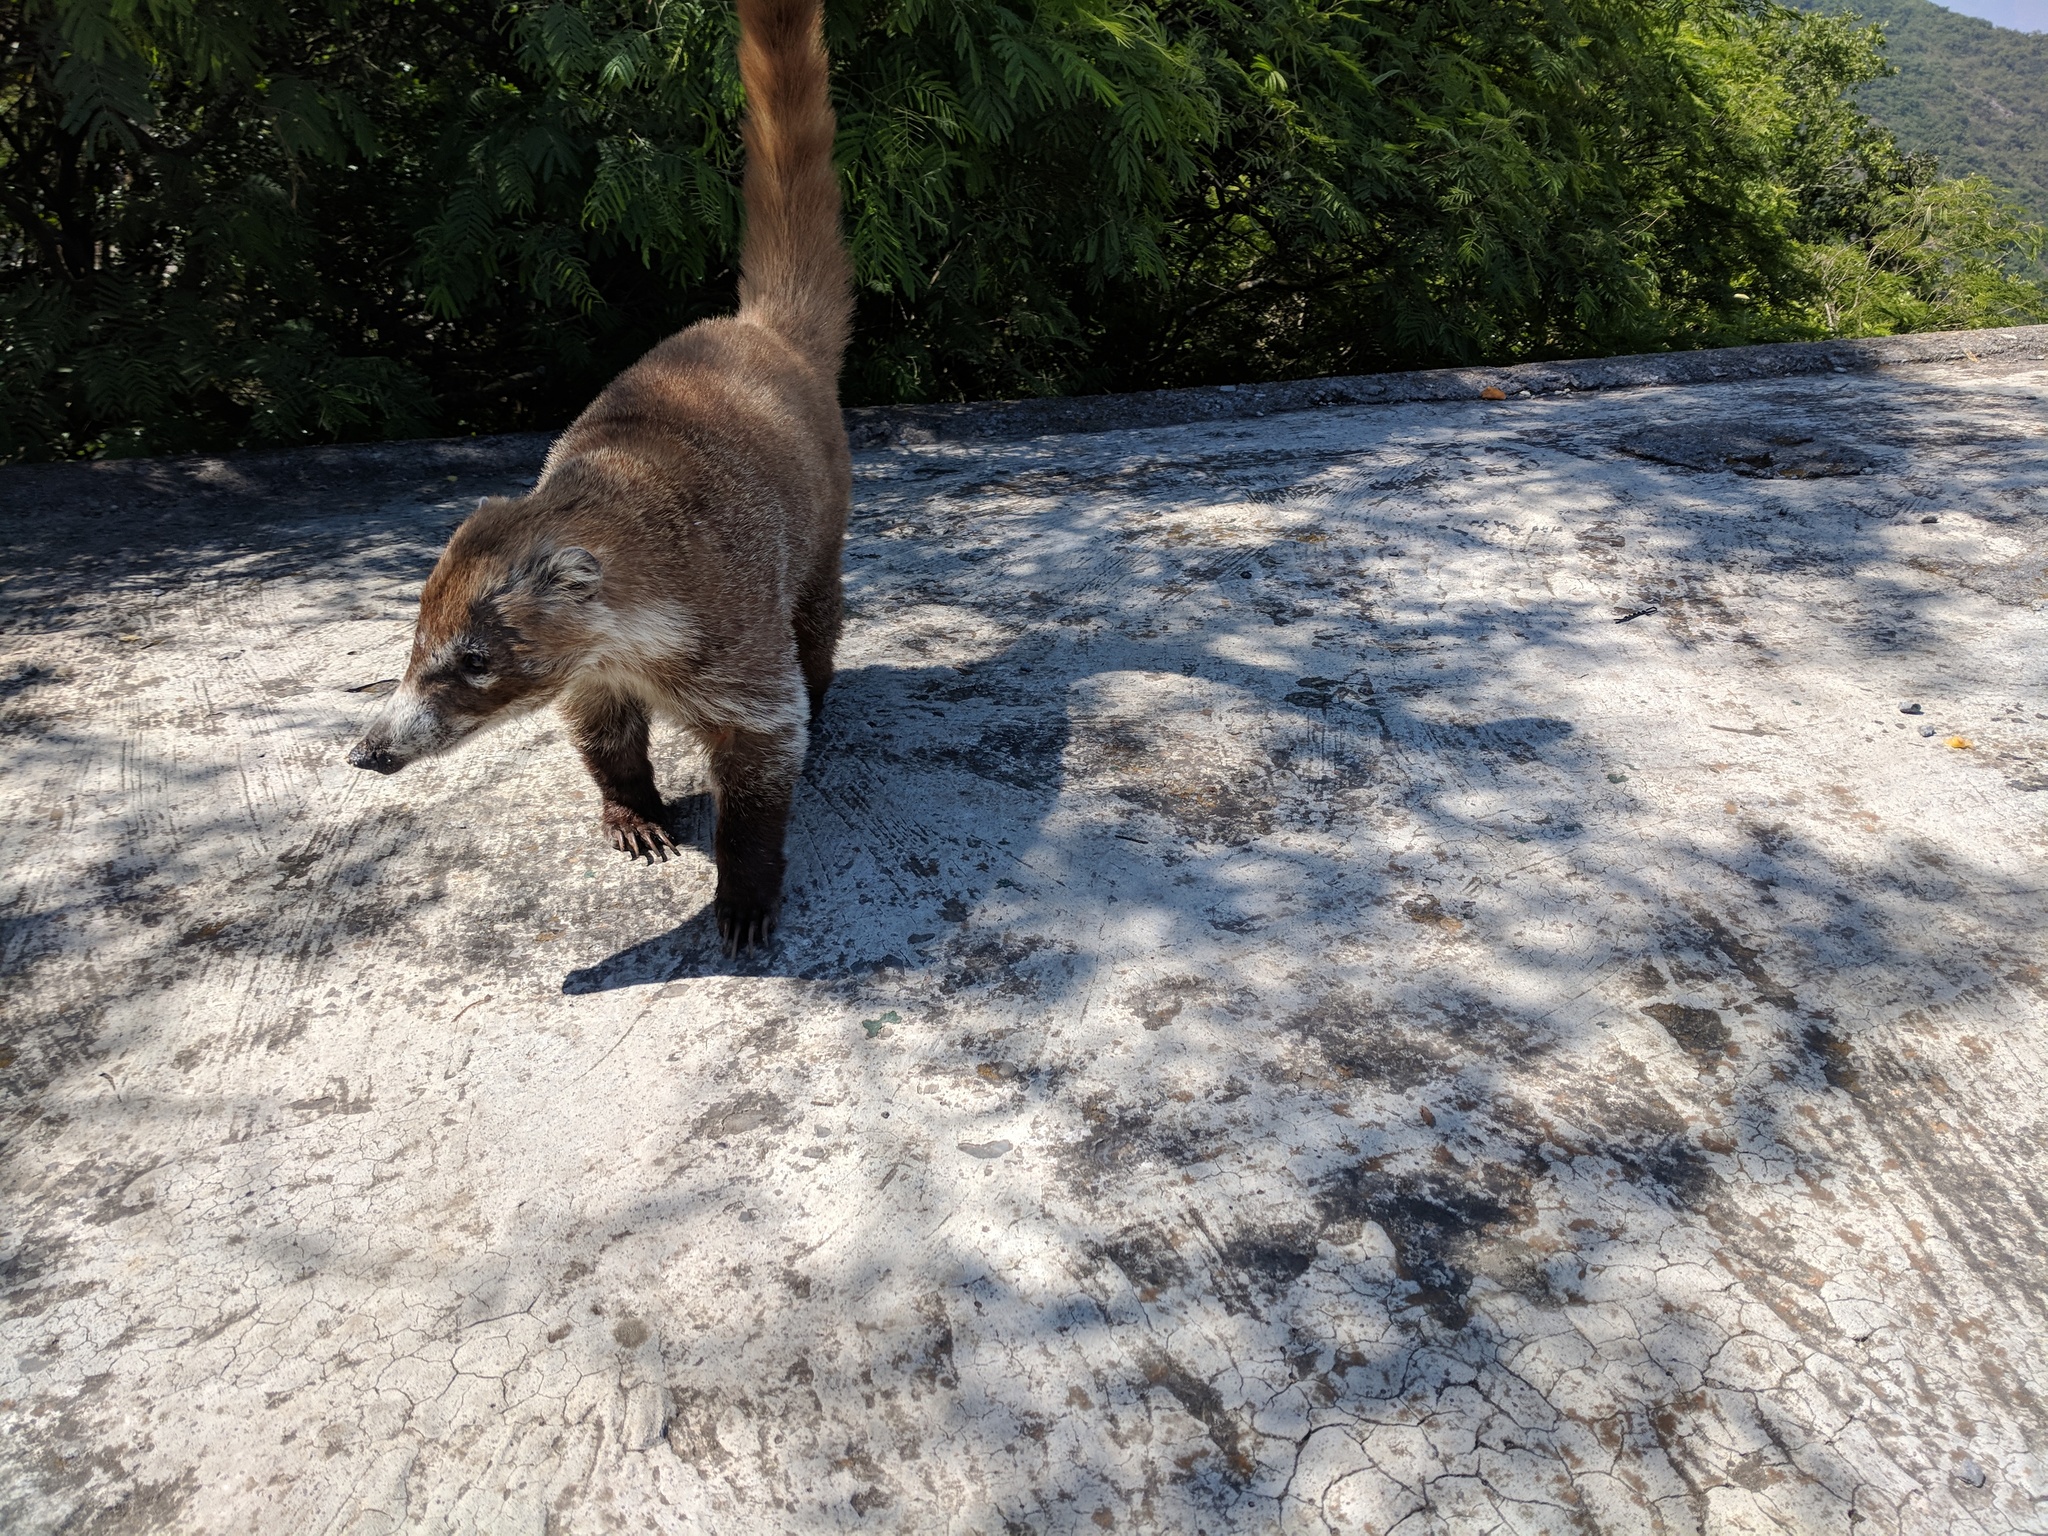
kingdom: Animalia
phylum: Chordata
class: Mammalia
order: Carnivora
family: Procyonidae
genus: Nasua
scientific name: Nasua narica
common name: White-nosed coati
